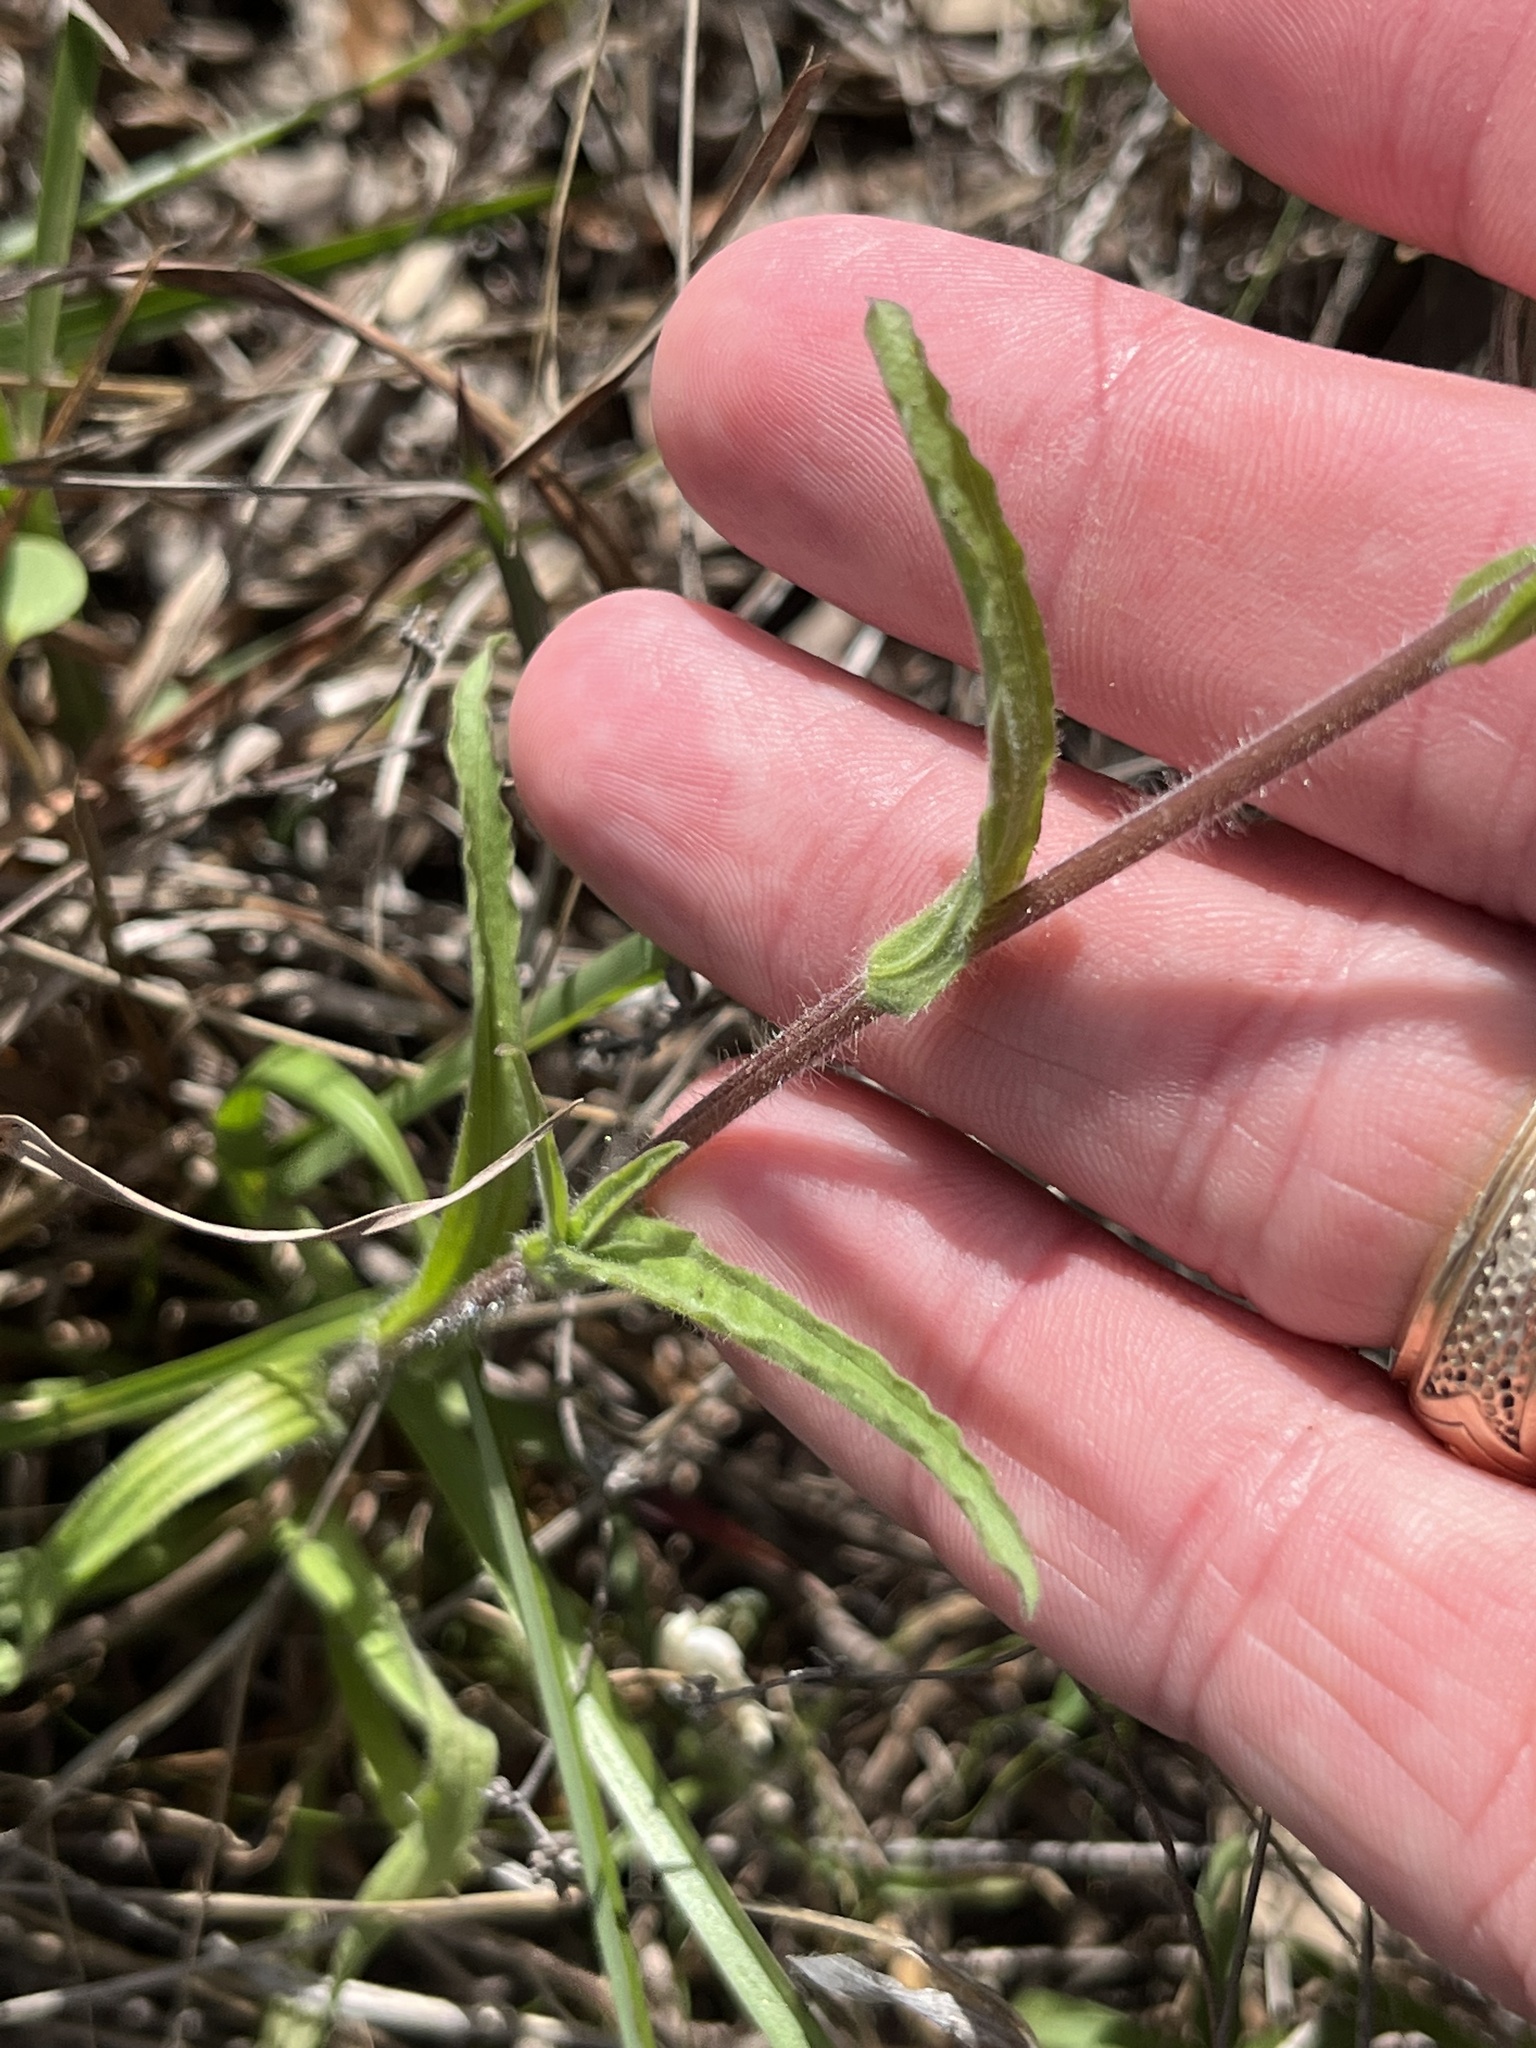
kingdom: Plantae
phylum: Tracheophyta
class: Magnoliopsida
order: Lamiales
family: Orobanchaceae
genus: Castilleja
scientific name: Castilleja indivisa
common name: Texas paintbrush
